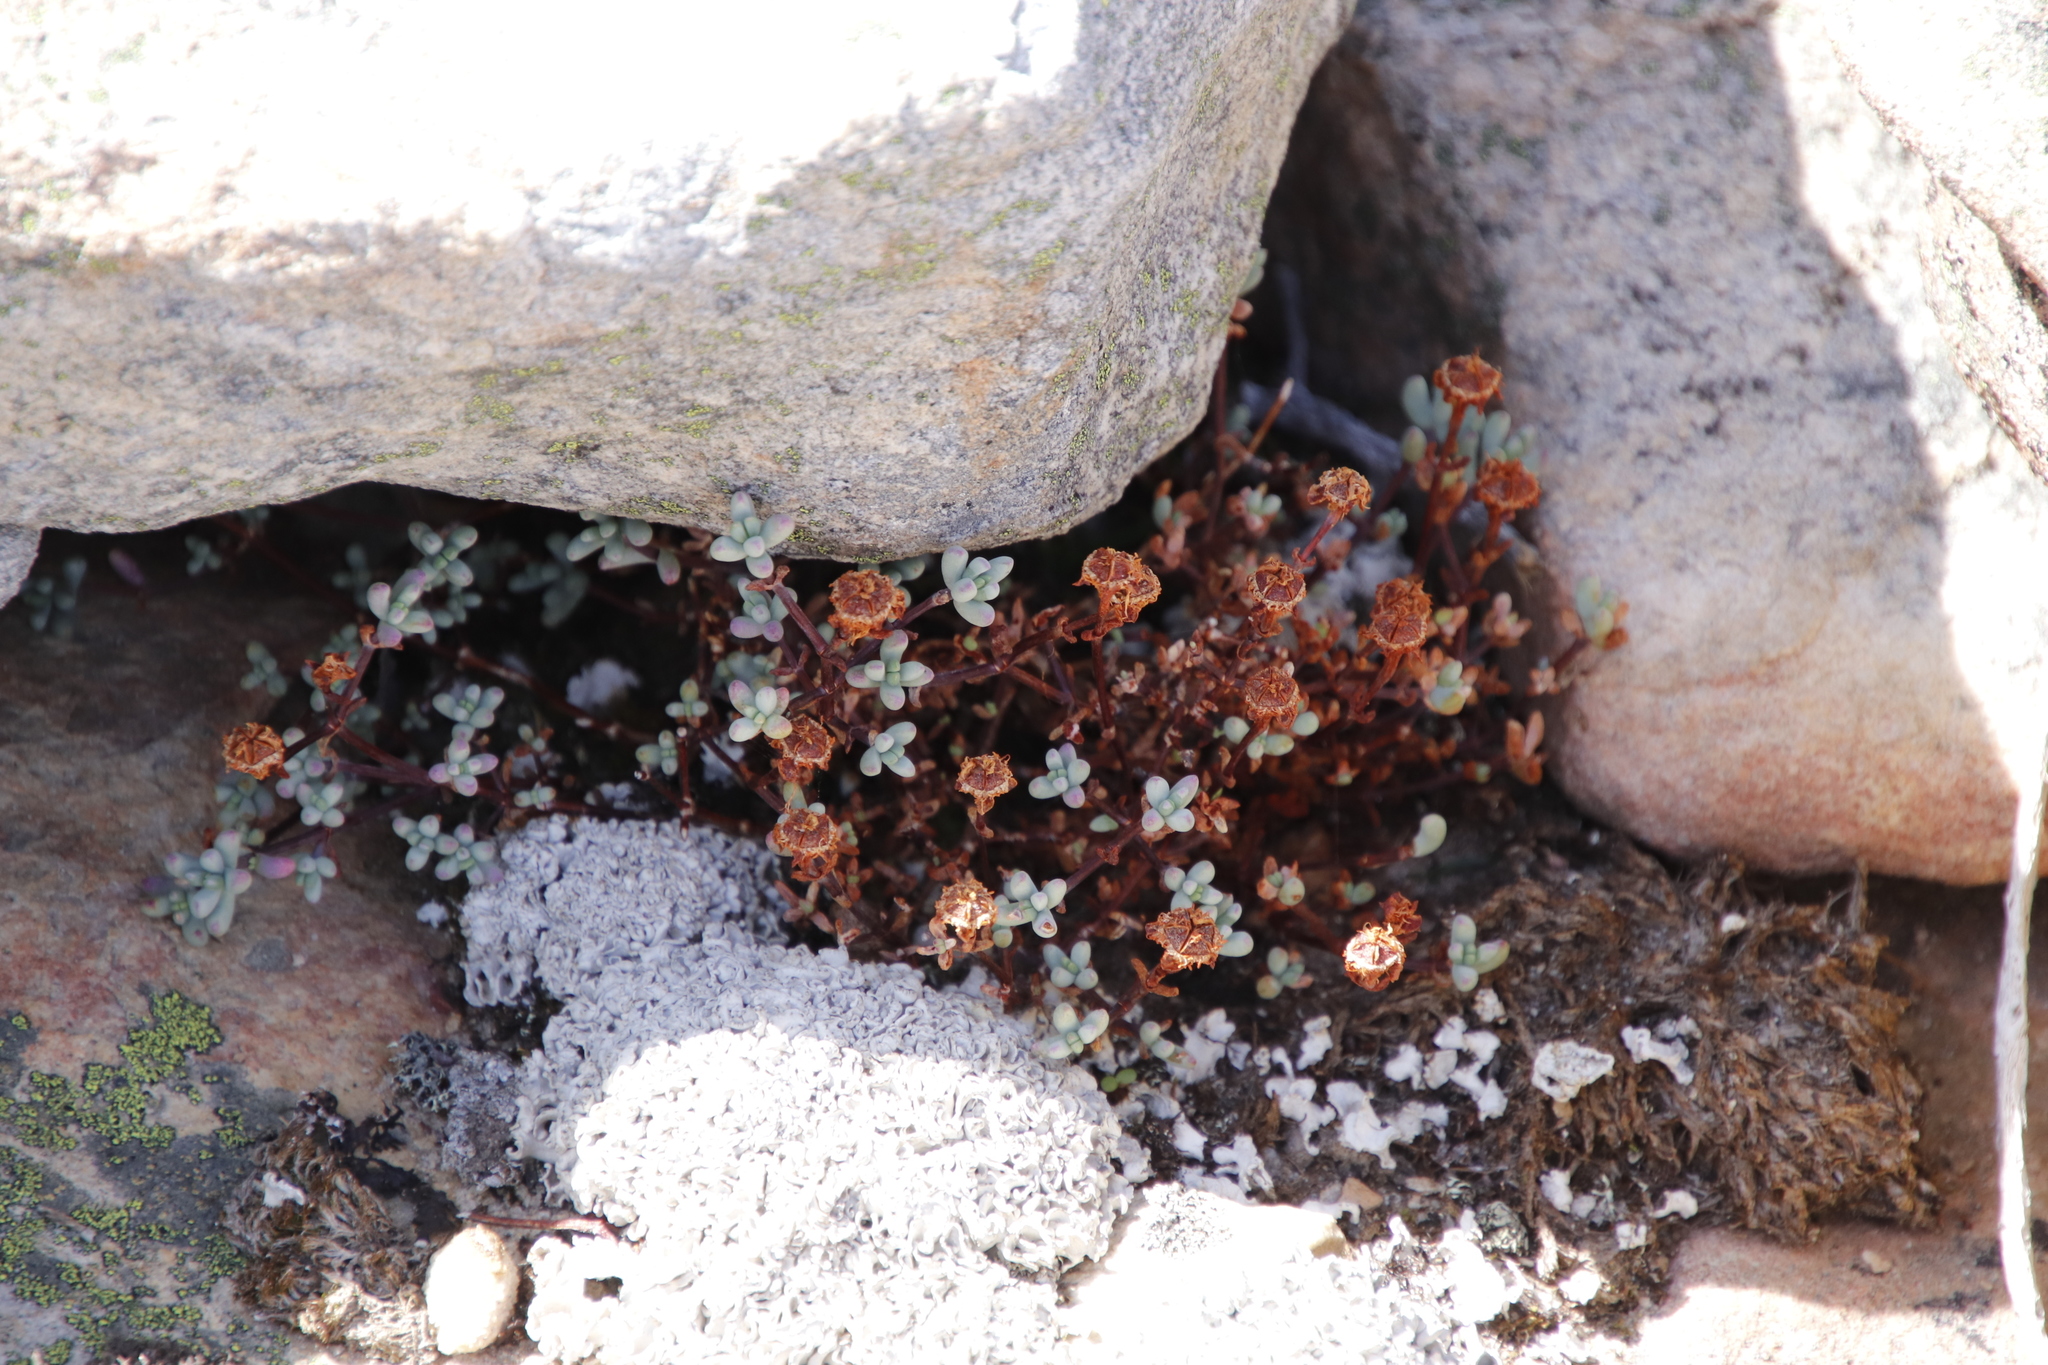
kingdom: Plantae
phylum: Tracheophyta
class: Magnoliopsida
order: Caryophyllales
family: Aizoaceae
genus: Lampranthus
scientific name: Lampranthus falcatus
